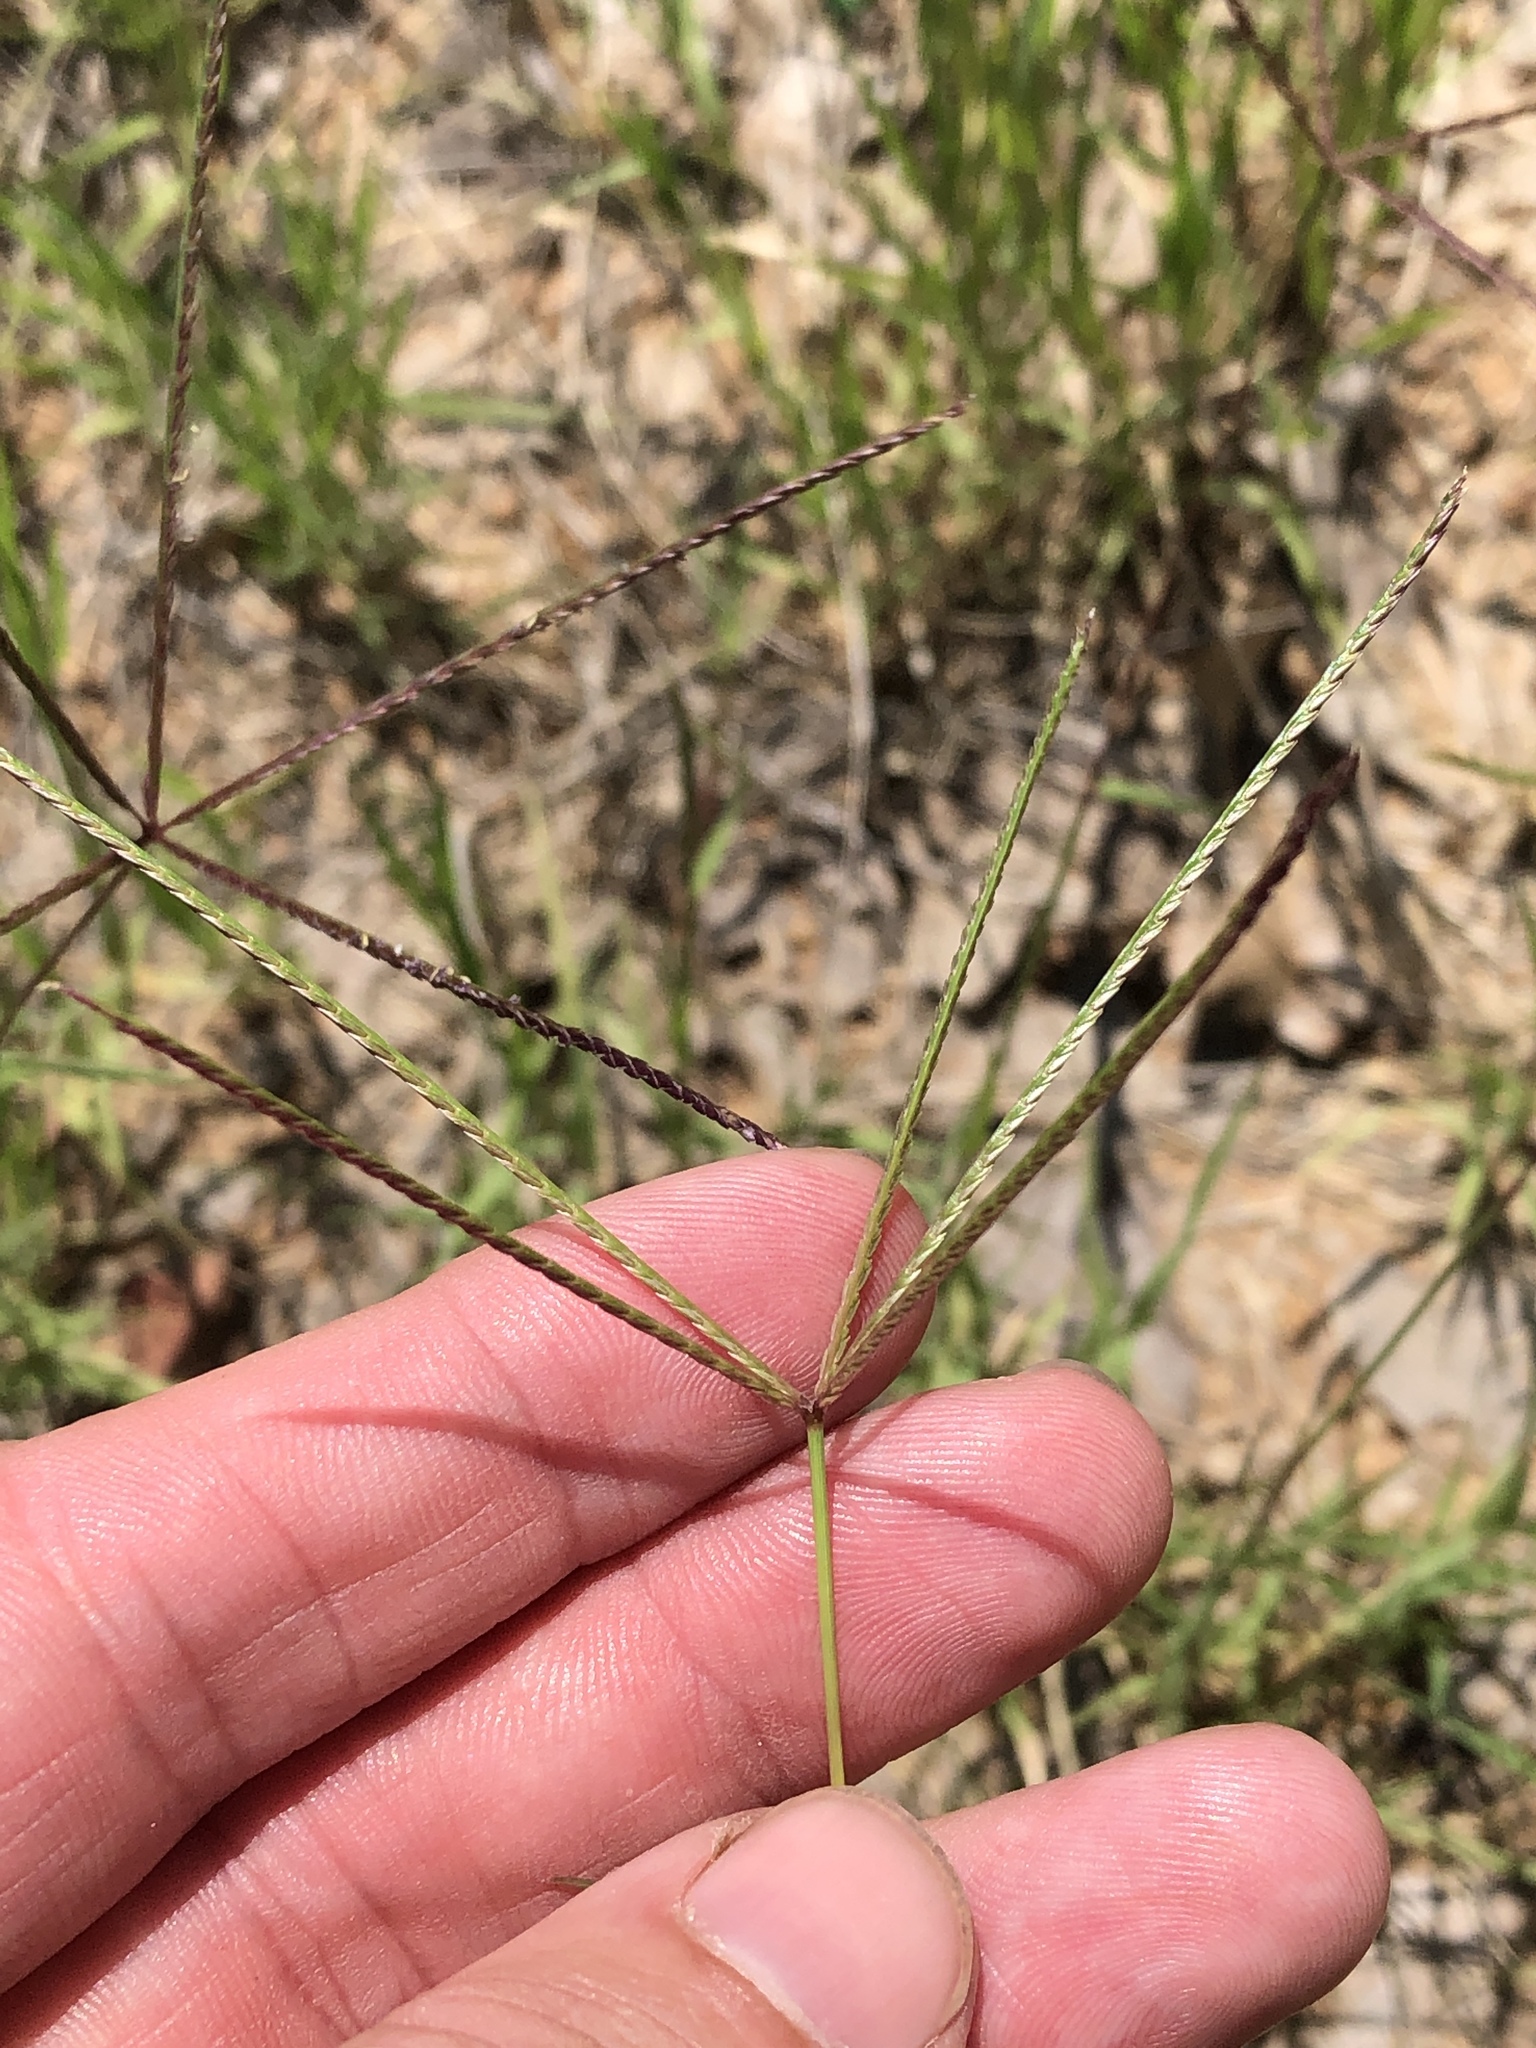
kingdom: Plantae
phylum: Tracheophyta
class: Liliopsida
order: Poales
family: Poaceae
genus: Cynodon
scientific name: Cynodon dactylon
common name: Bermuda grass
